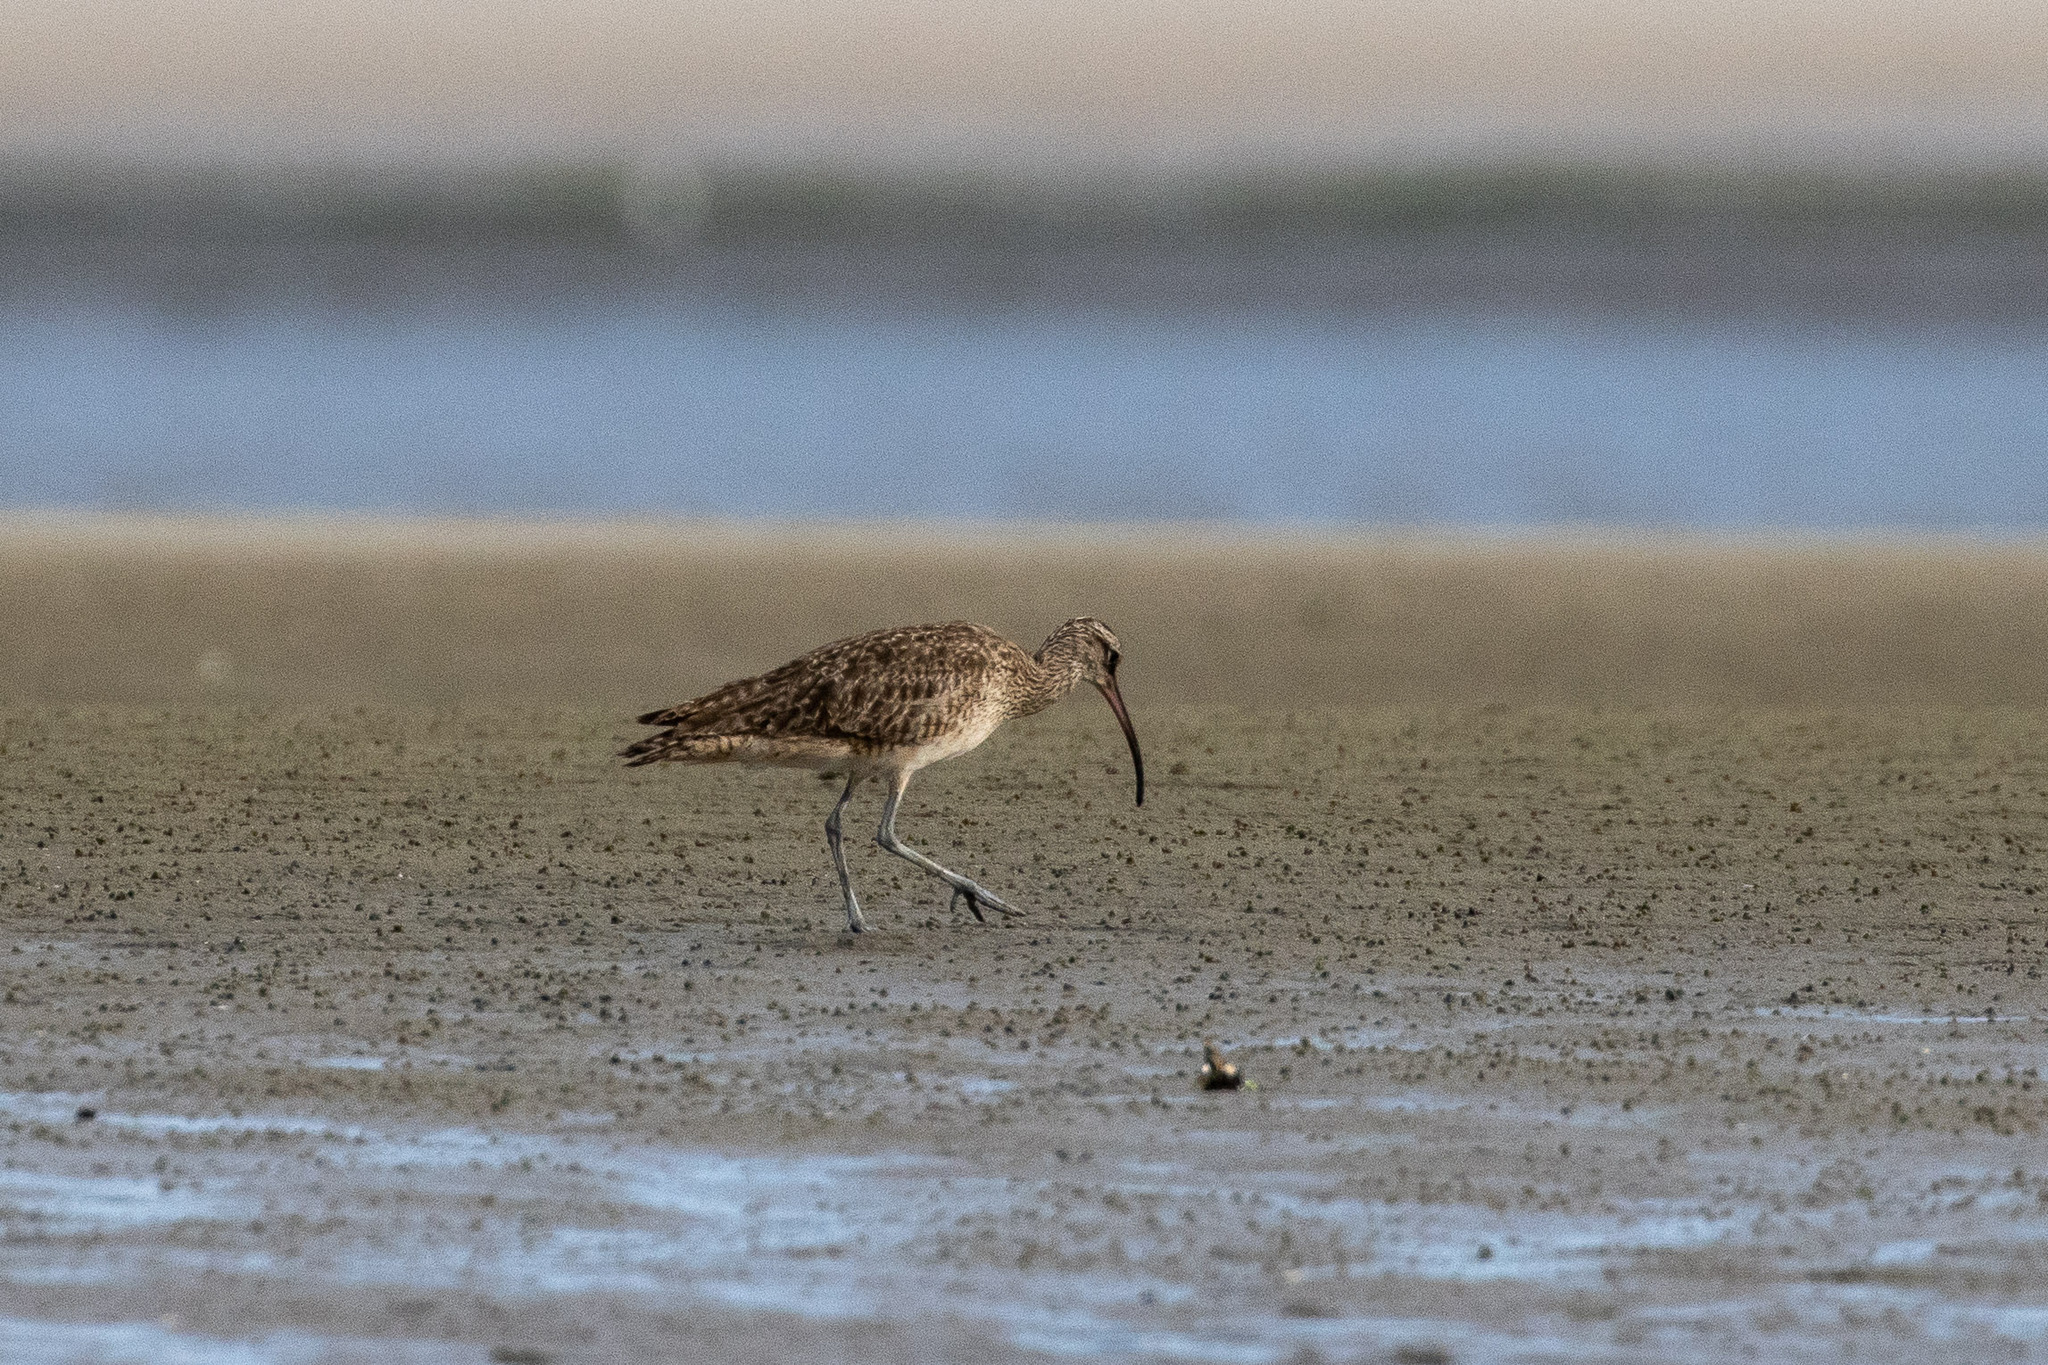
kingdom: Animalia
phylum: Chordata
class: Aves
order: Charadriiformes
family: Scolopacidae
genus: Numenius
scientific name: Numenius hudsonicus
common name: Hudsonian whimbrel
